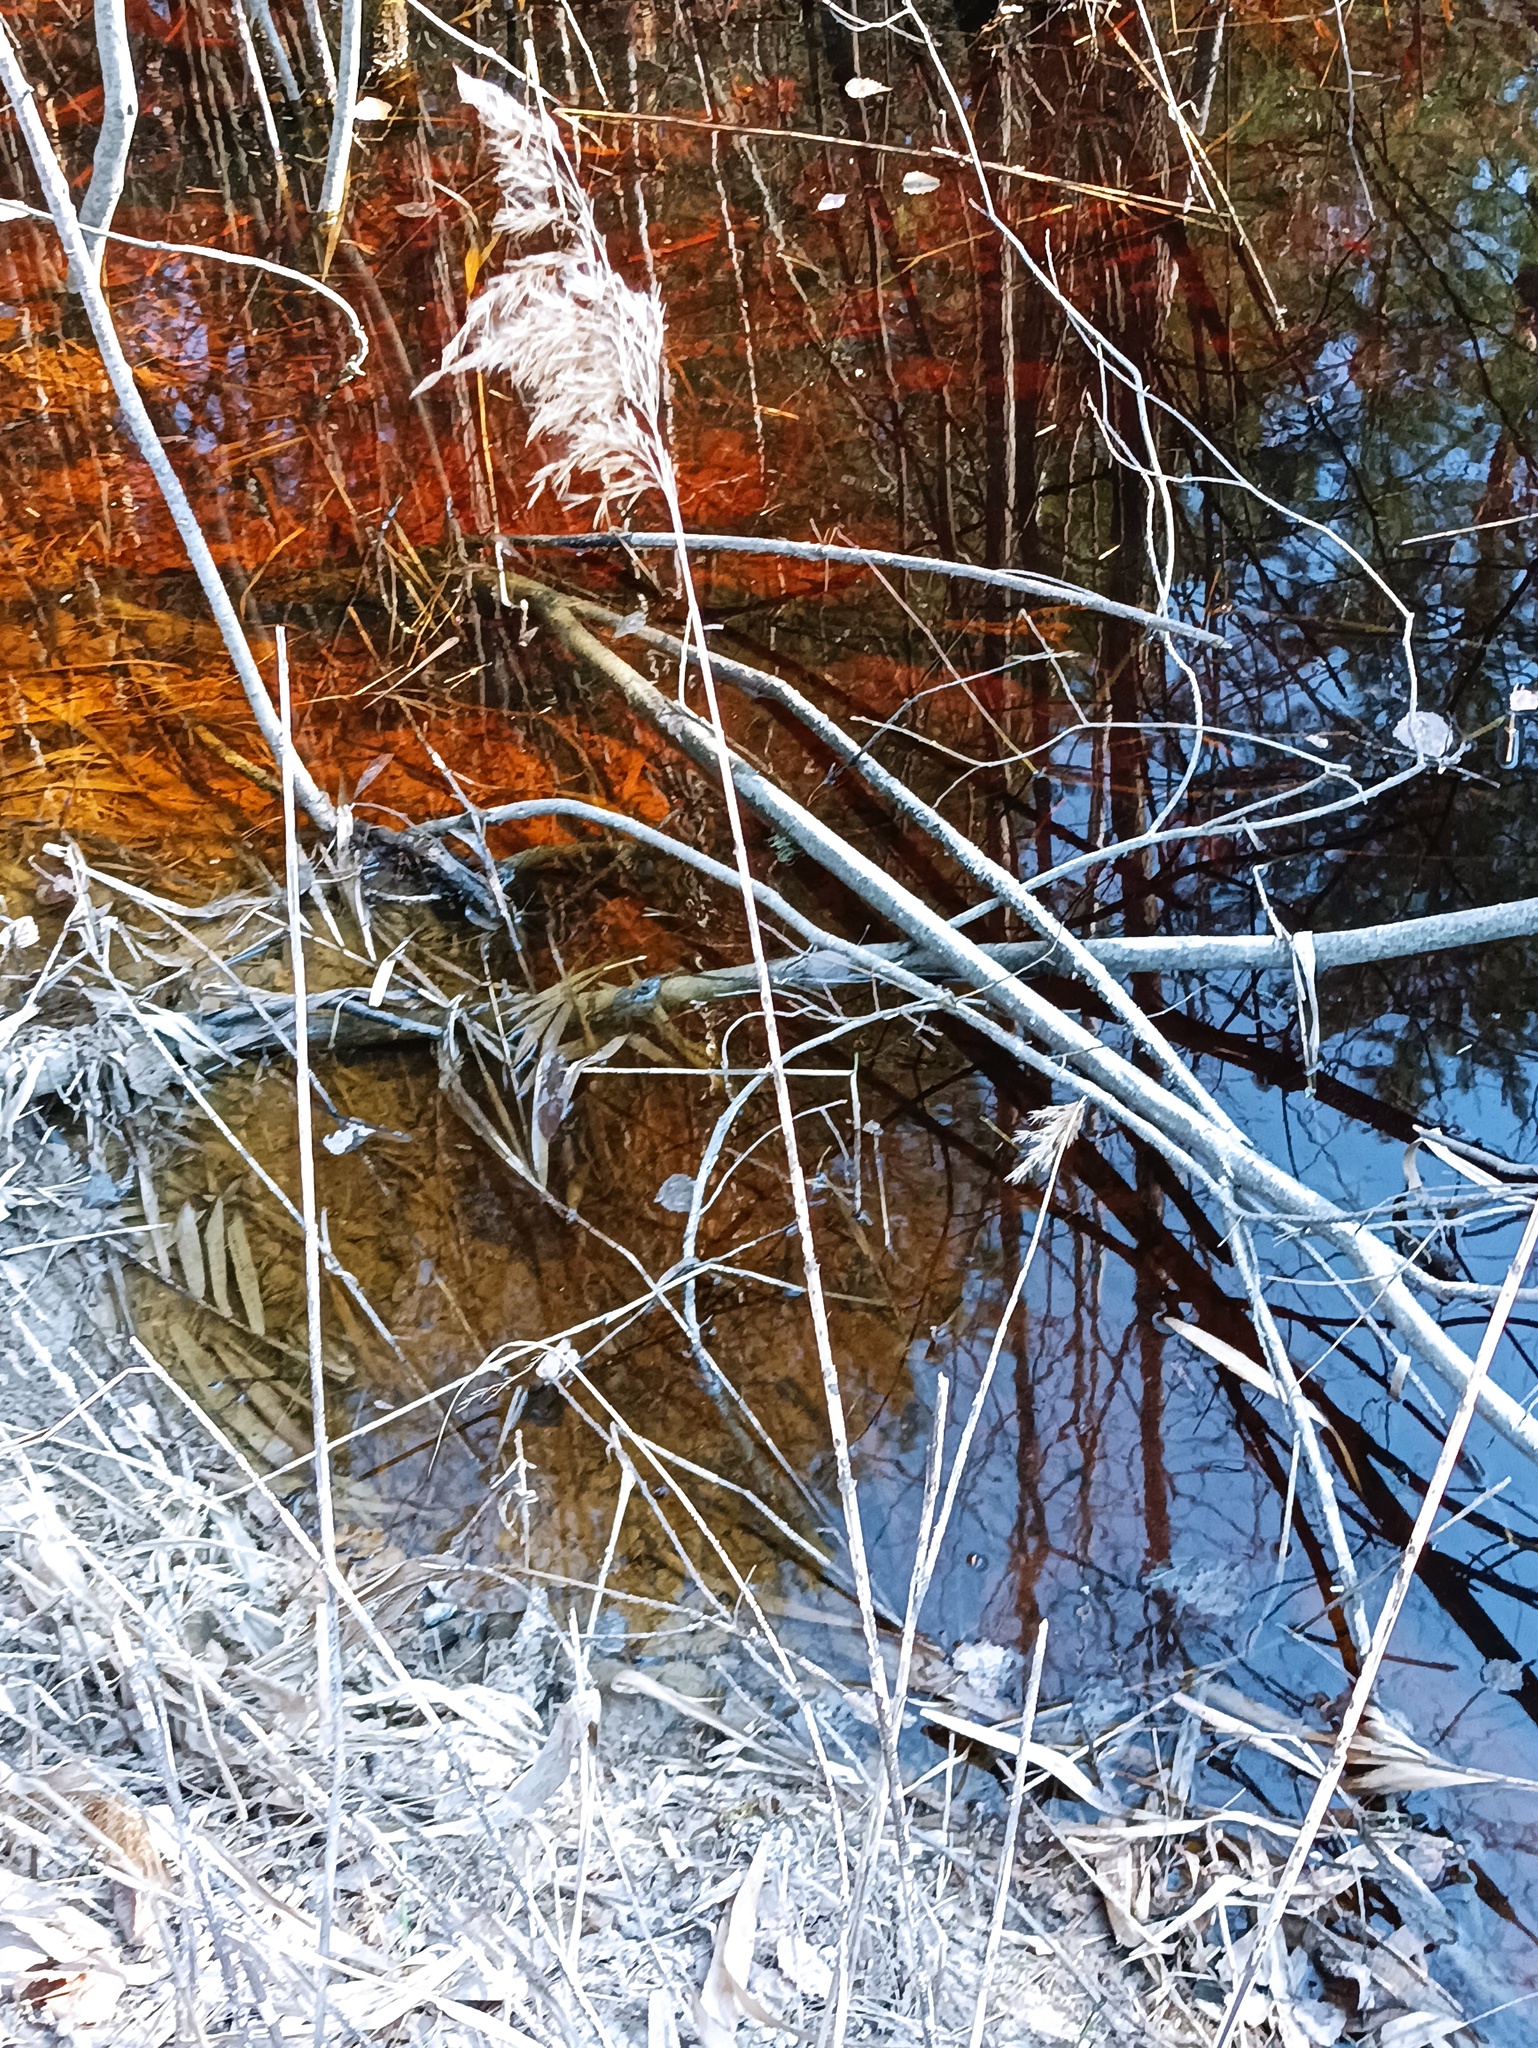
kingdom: Plantae
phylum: Tracheophyta
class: Liliopsida
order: Poales
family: Poaceae
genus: Phragmites
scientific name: Phragmites australis
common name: Common reed
